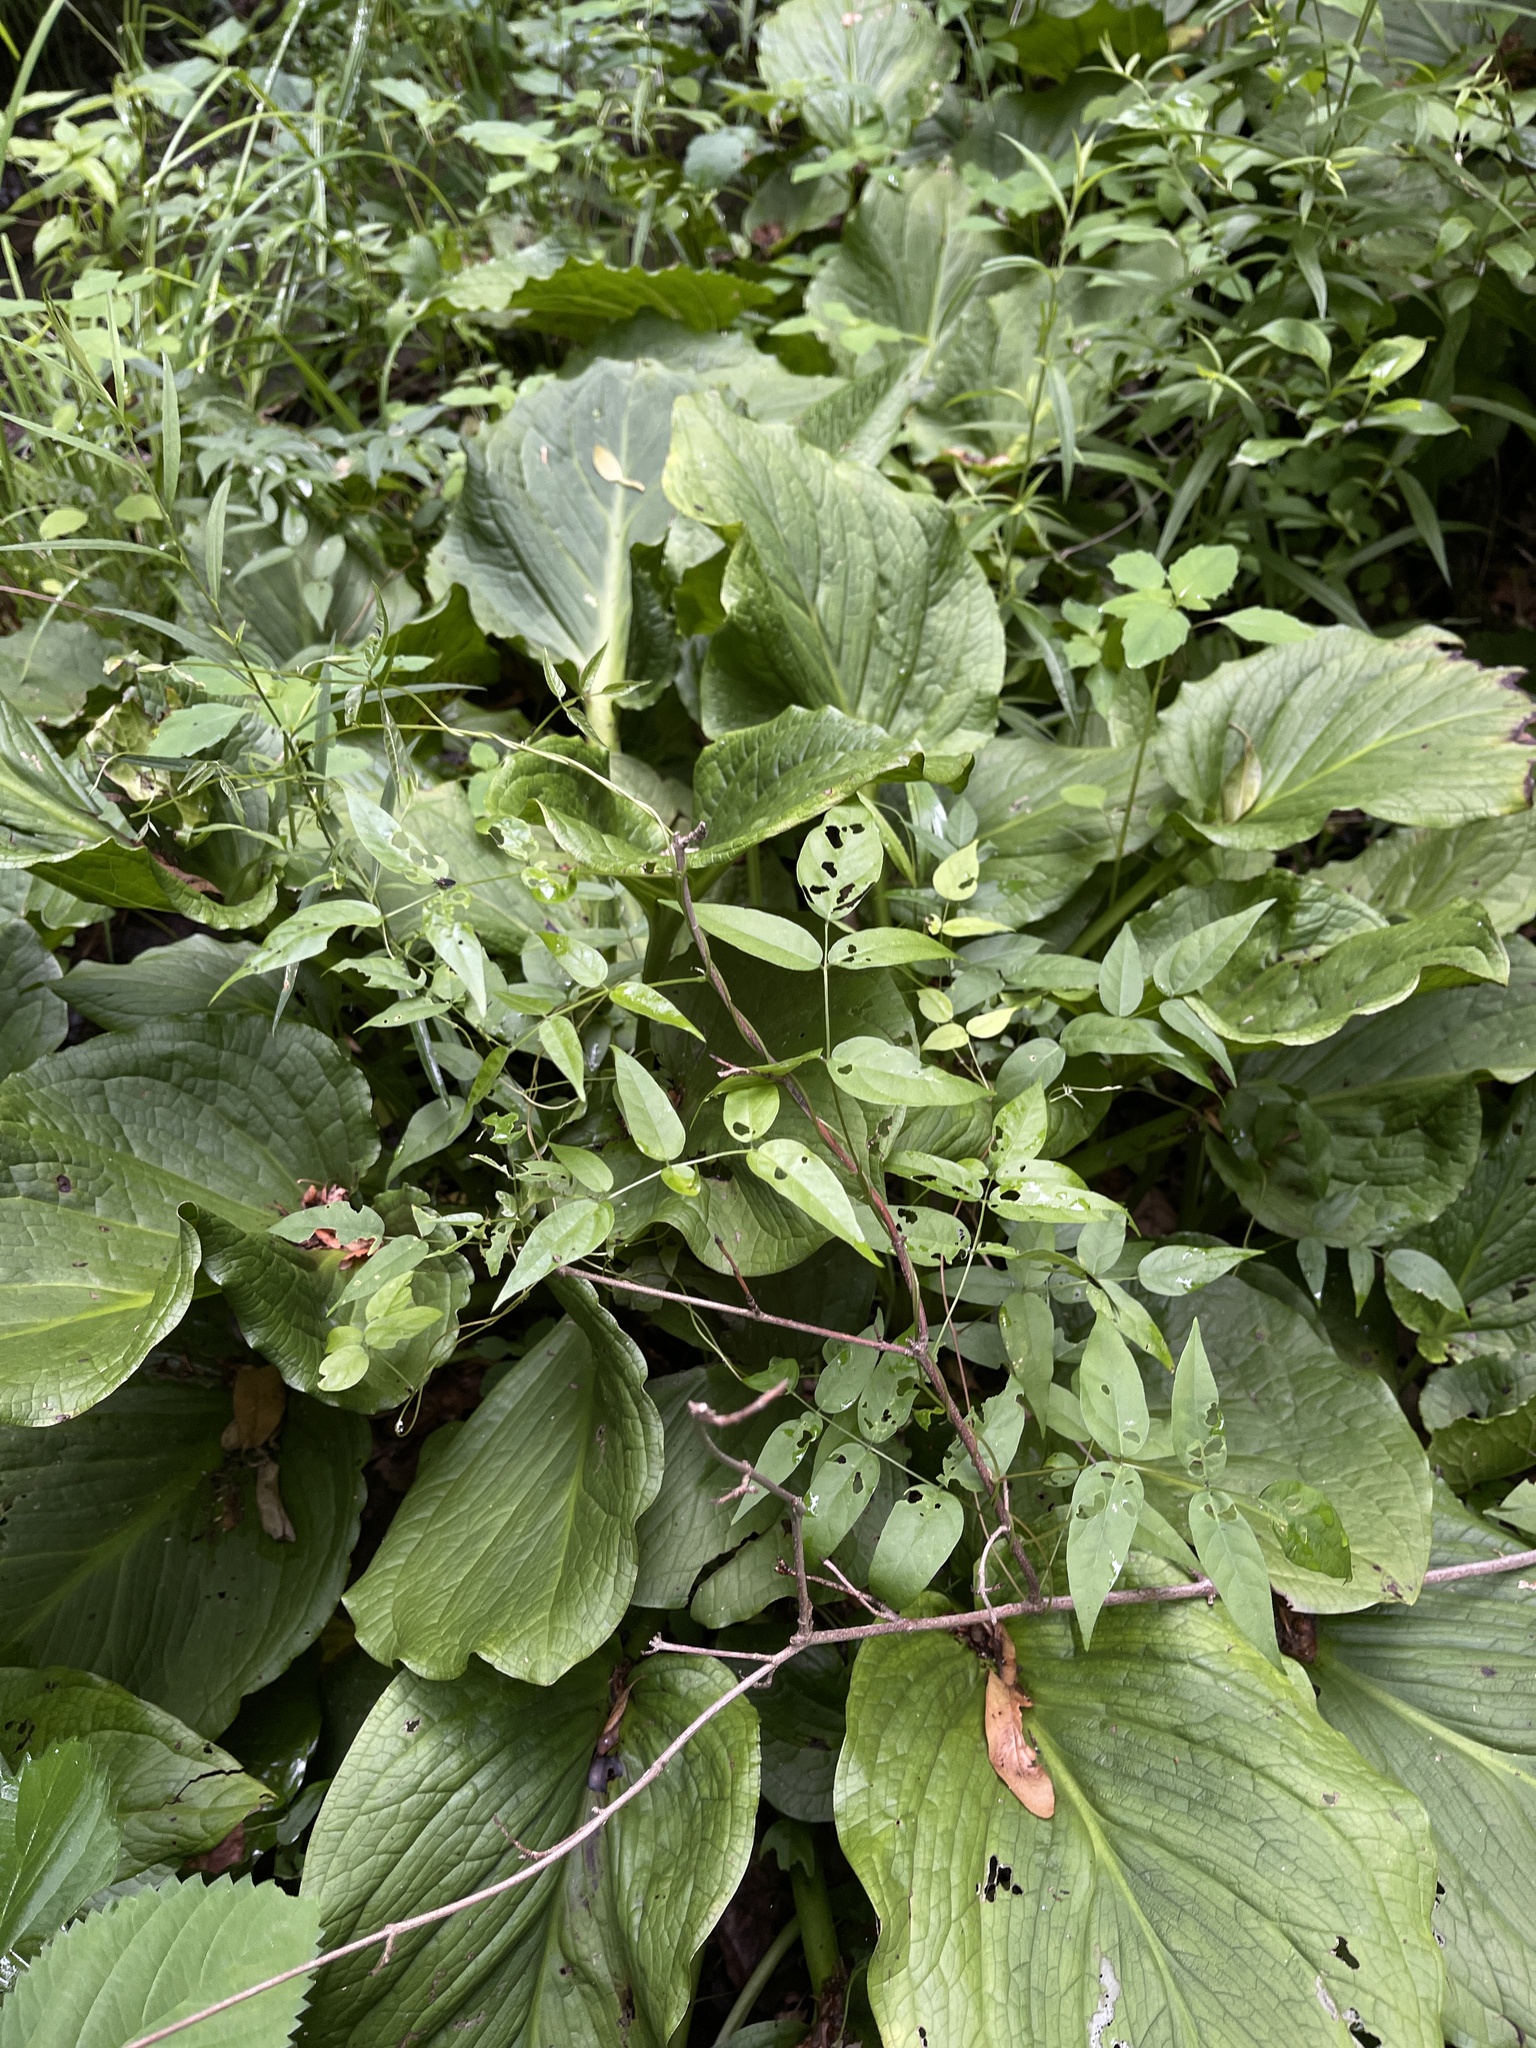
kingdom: Plantae
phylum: Tracheophyta
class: Magnoliopsida
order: Fabales
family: Fabaceae
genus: Apios
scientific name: Apios americana
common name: American potato-bean
